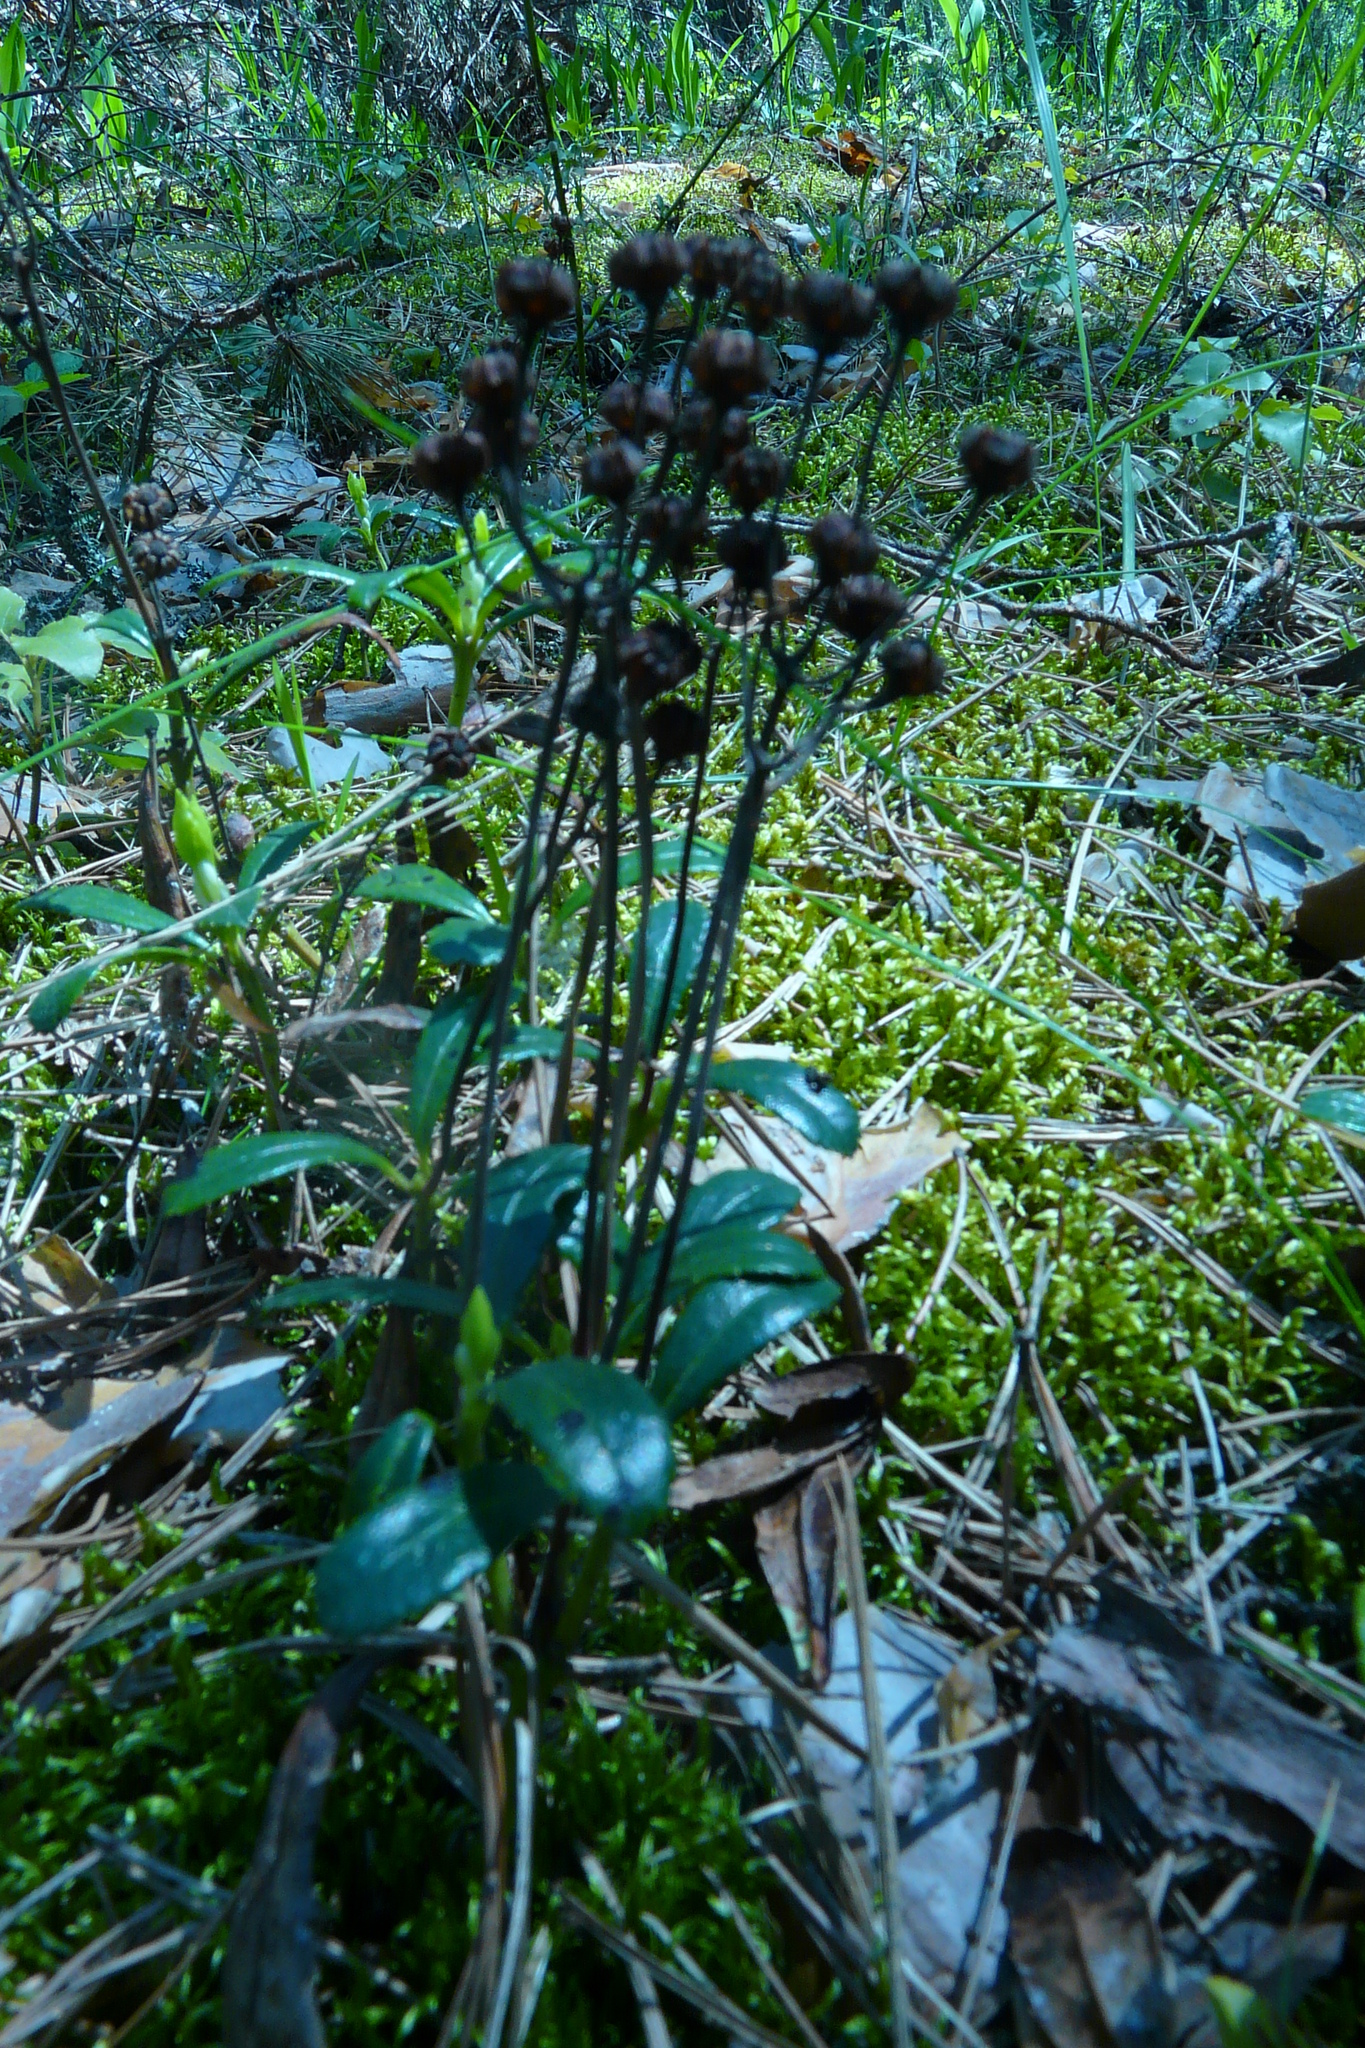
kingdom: Plantae
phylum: Tracheophyta
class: Magnoliopsida
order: Ericales
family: Ericaceae
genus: Chimaphila
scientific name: Chimaphila umbellata
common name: Pipsissewa
